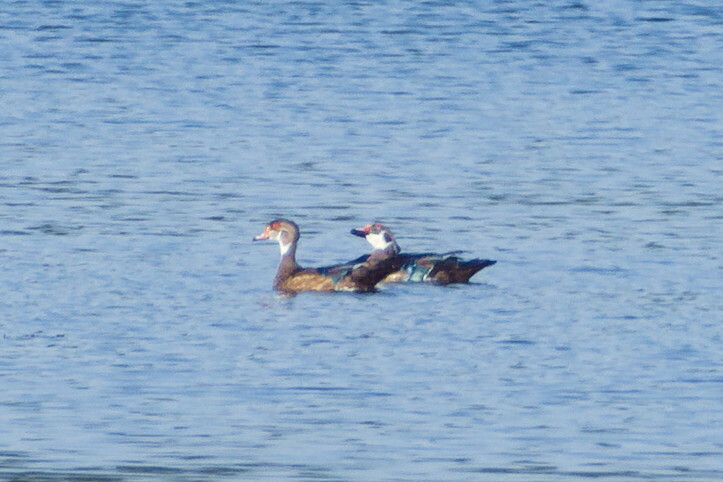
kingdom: Animalia
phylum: Chordata
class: Aves
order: Anseriformes
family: Anatidae
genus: Aix
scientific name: Aix sponsa
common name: Wood duck
